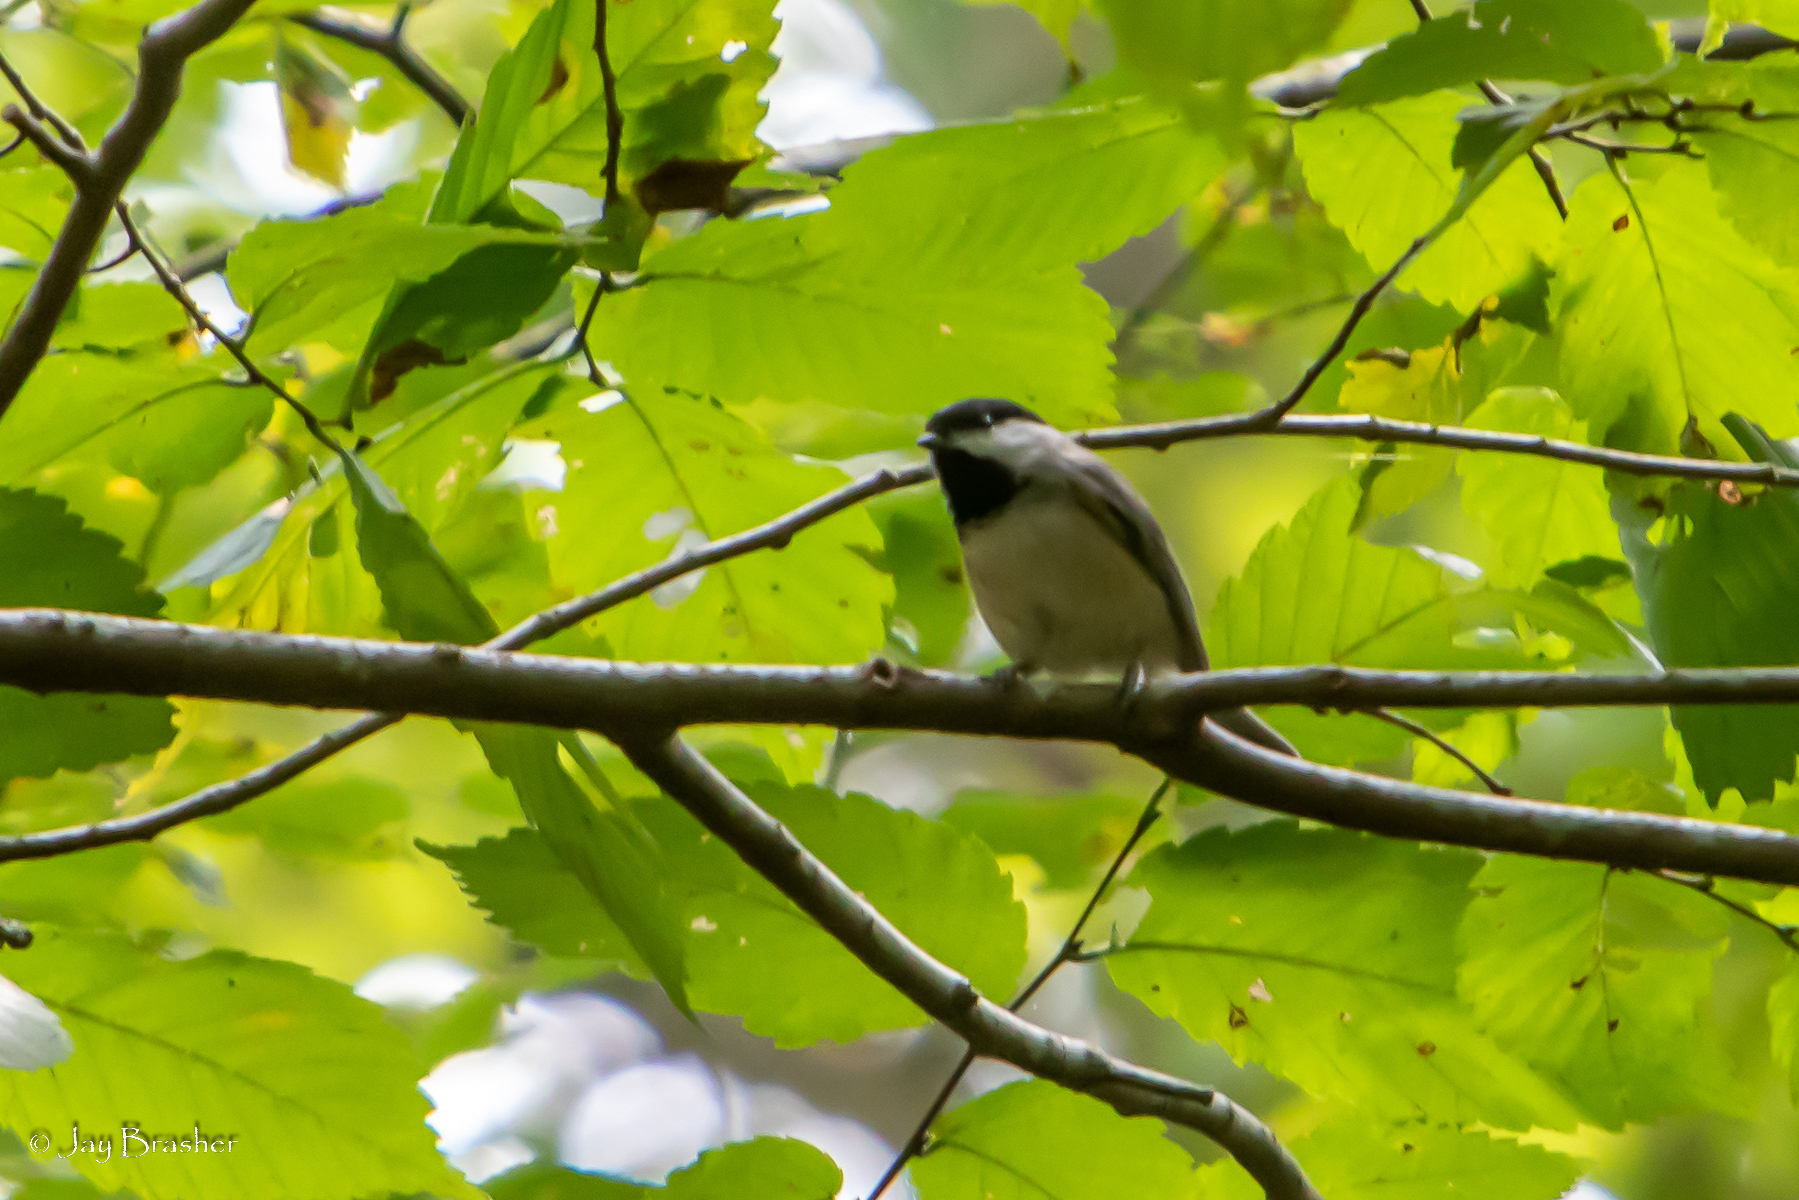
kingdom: Animalia
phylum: Chordata
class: Aves
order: Passeriformes
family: Paridae
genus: Poecile
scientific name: Poecile carolinensis
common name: Carolina chickadee
